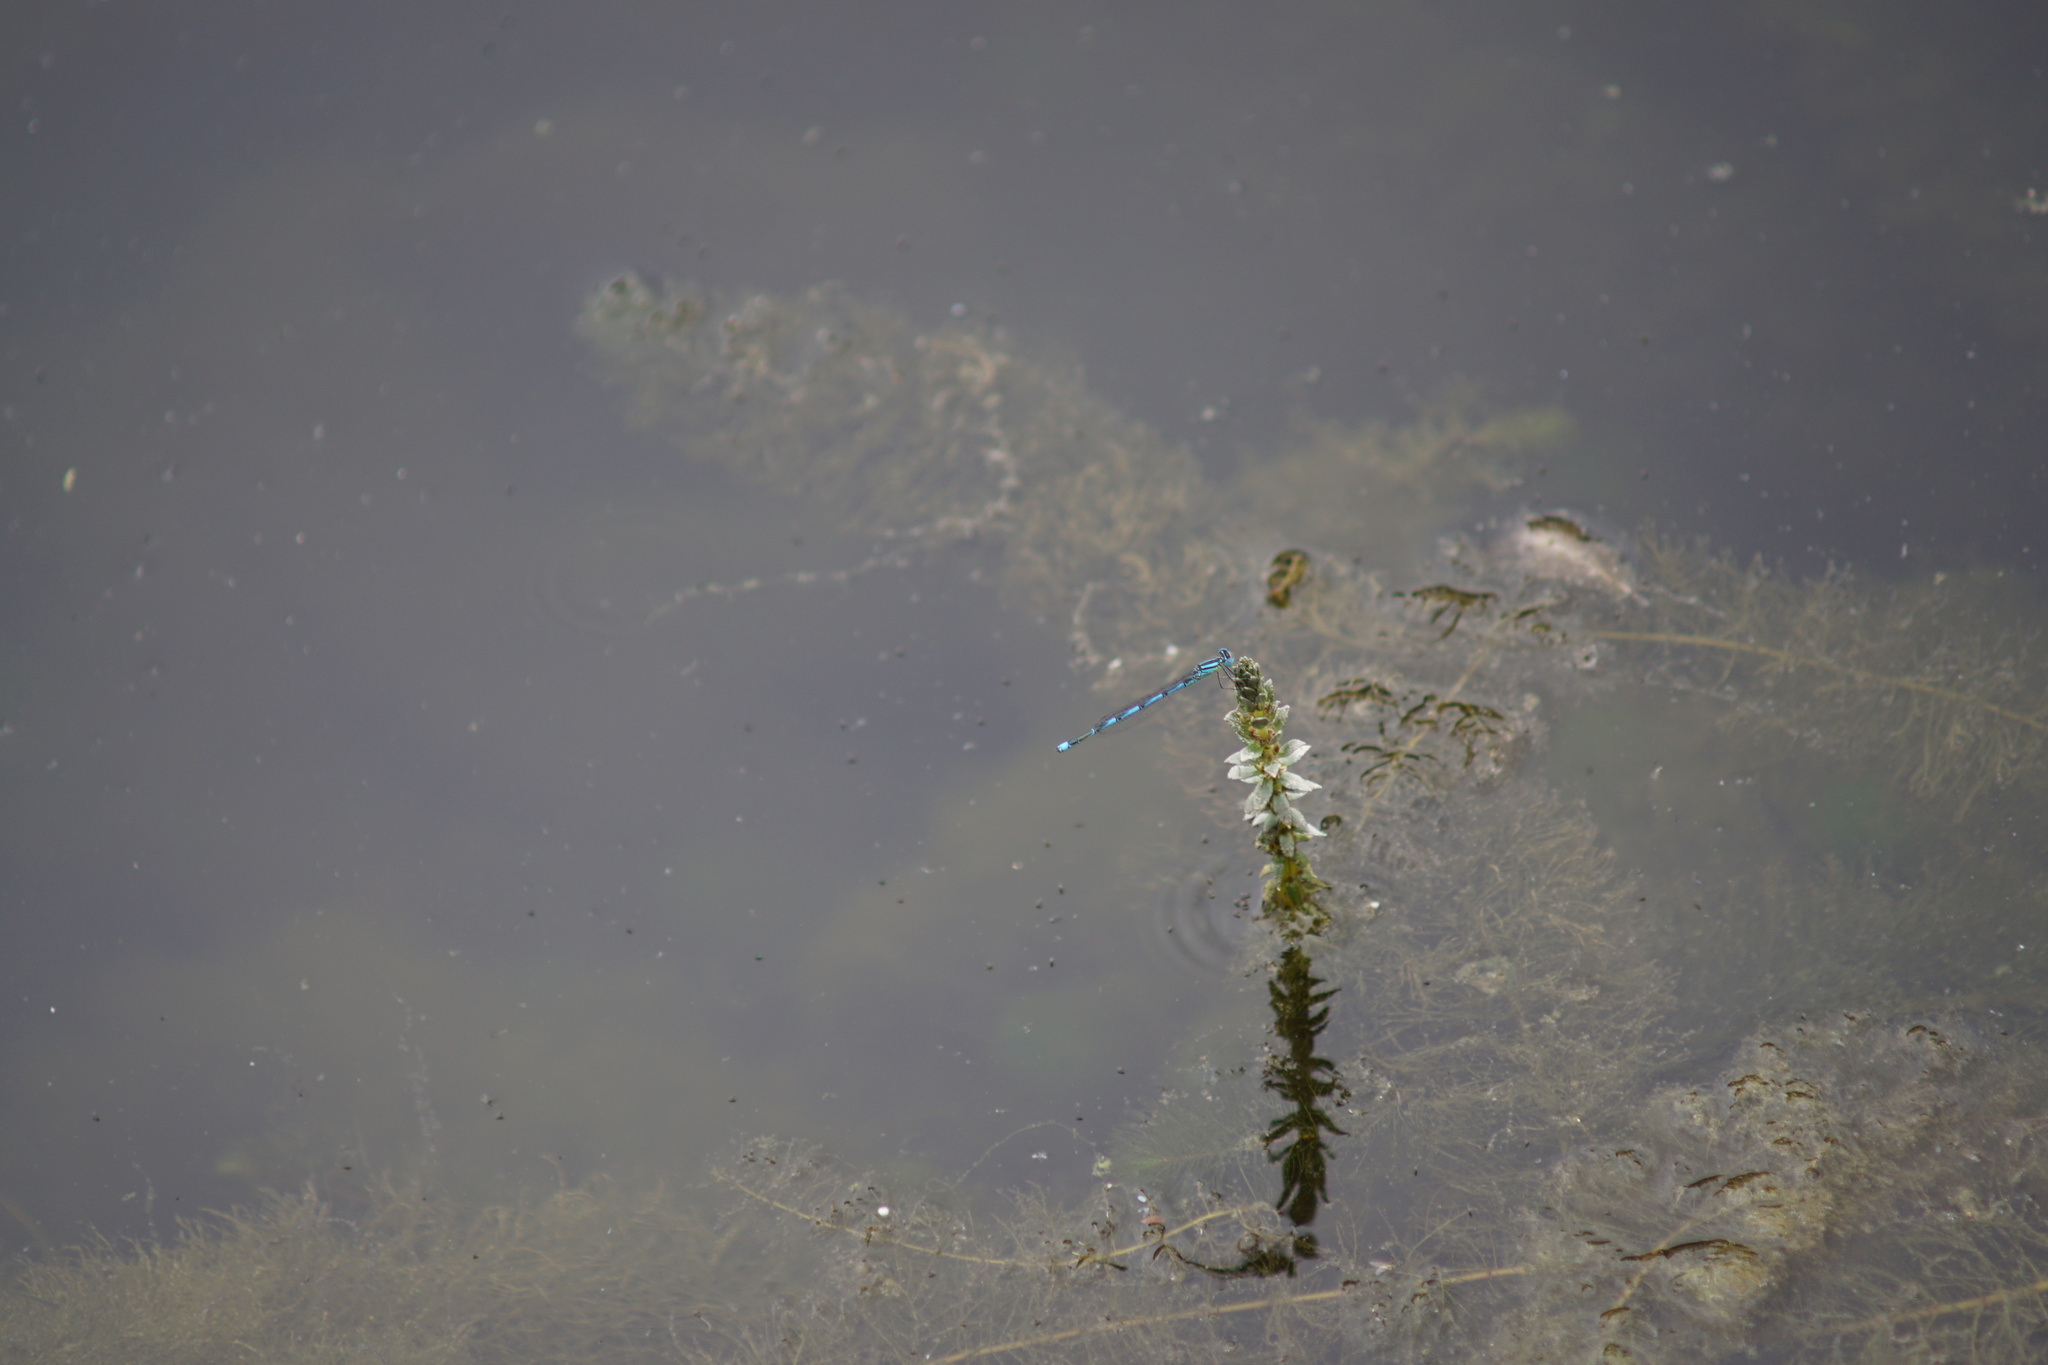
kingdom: Animalia
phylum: Arthropoda
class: Insecta
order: Odonata
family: Coenagrionidae
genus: Erythromma
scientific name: Erythromma lindenii
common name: Blue-eye
